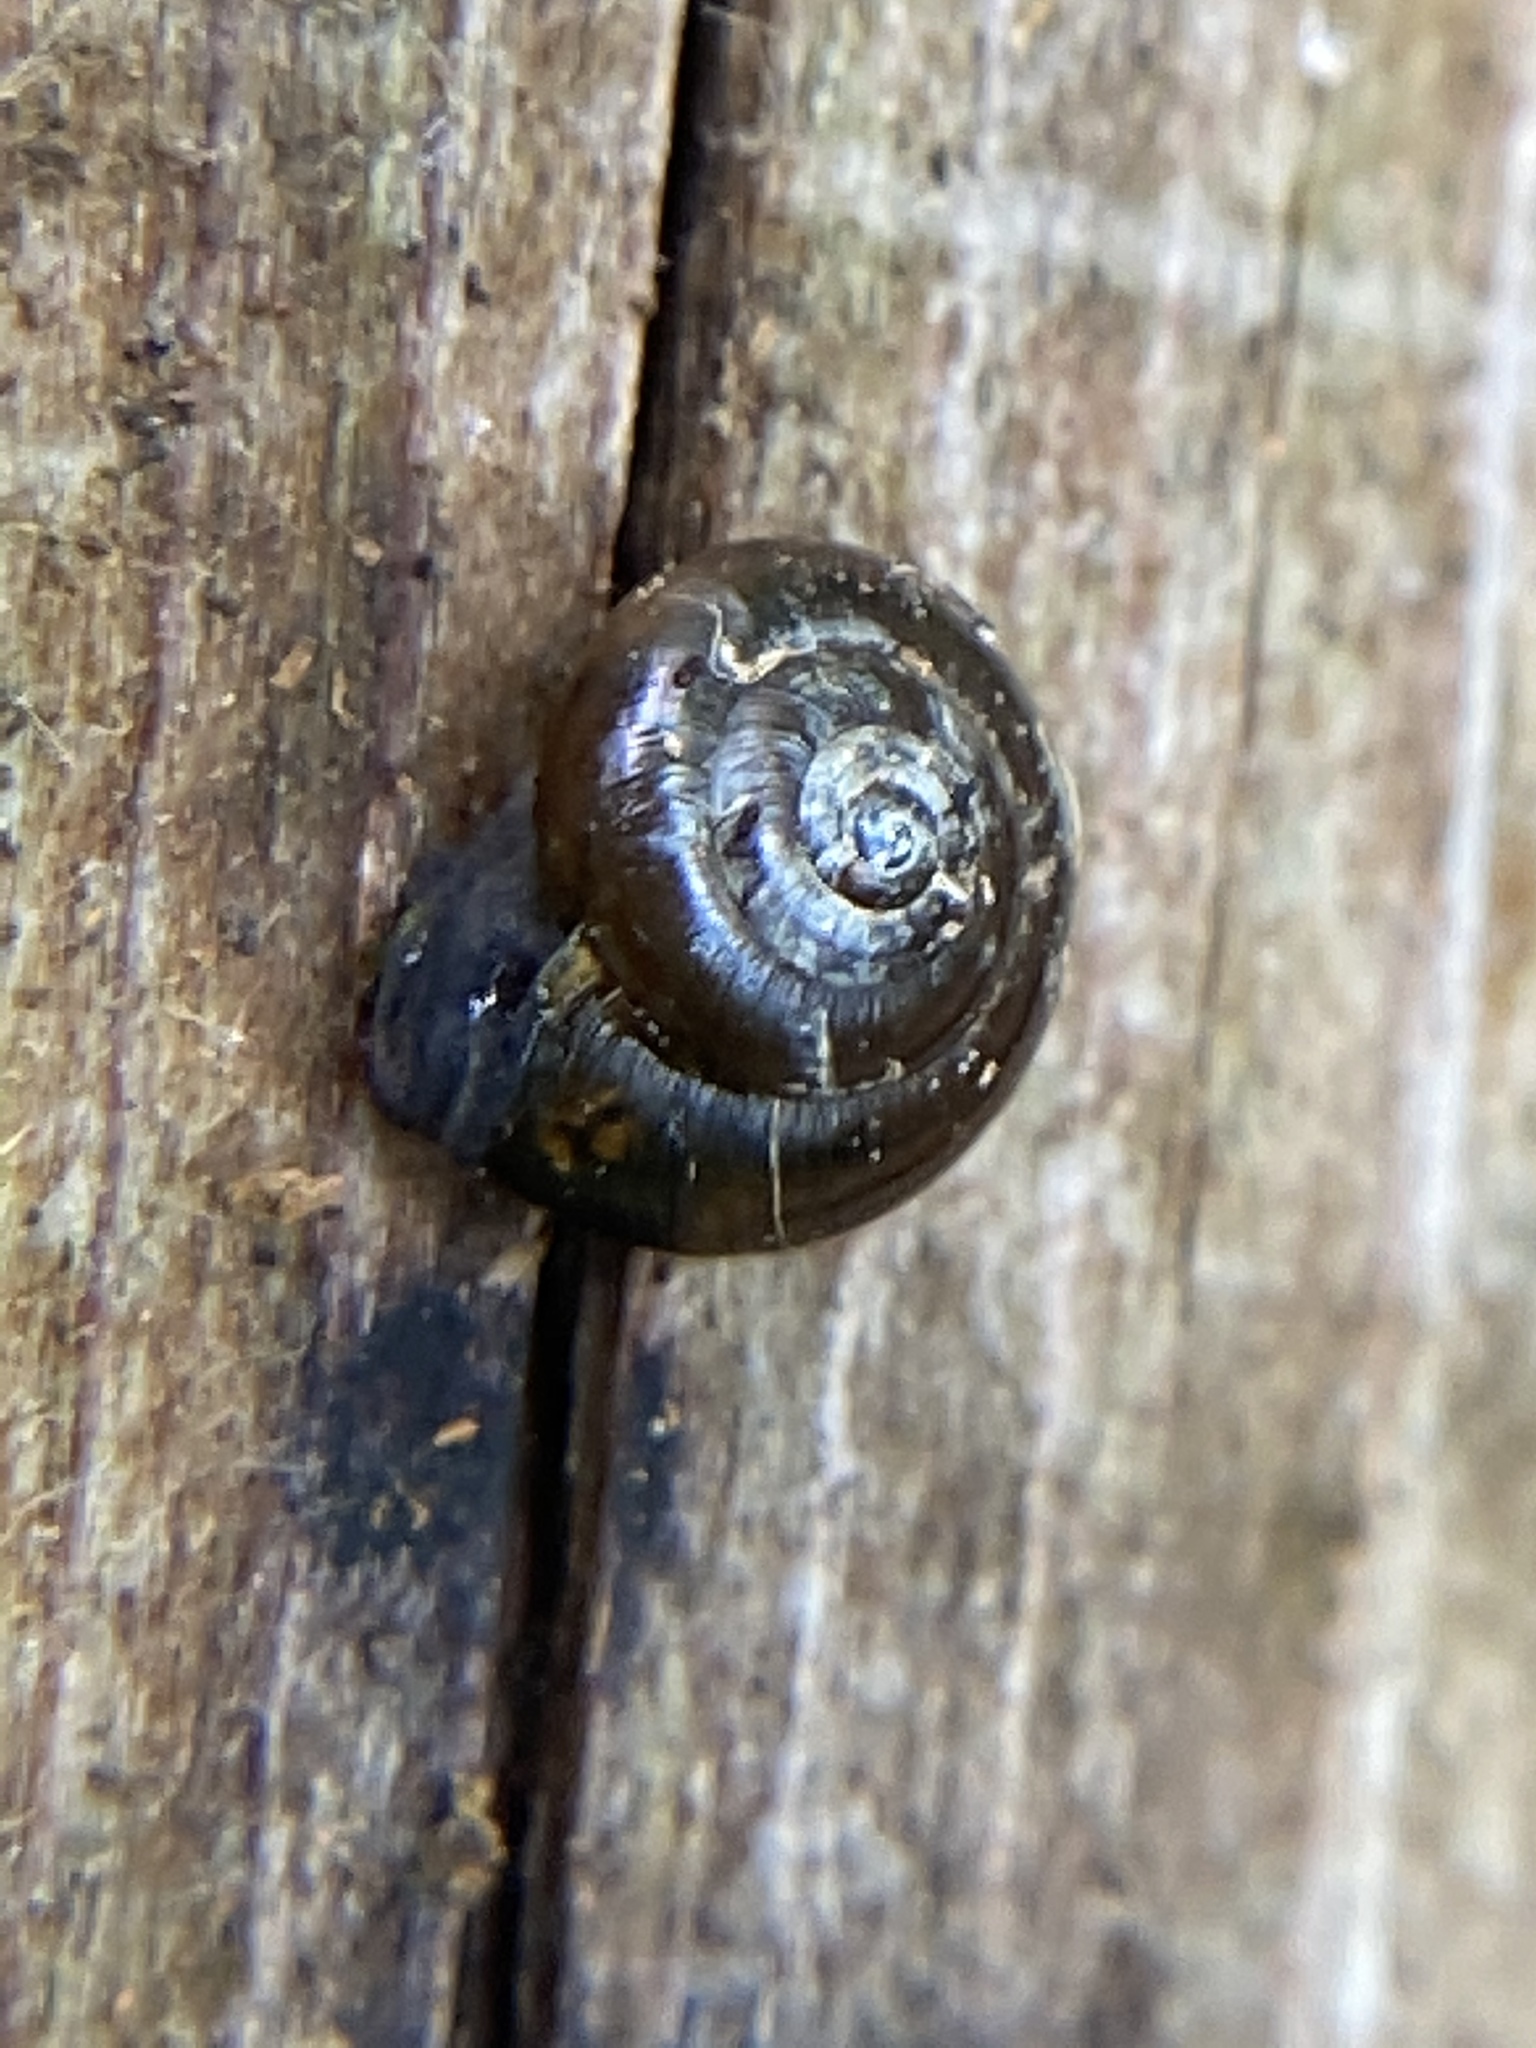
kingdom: Animalia
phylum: Mollusca
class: Gastropoda
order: Stylommatophora
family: Gastrodontidae
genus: Zonitoides
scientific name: Zonitoides arboreus
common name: Quick gloss
